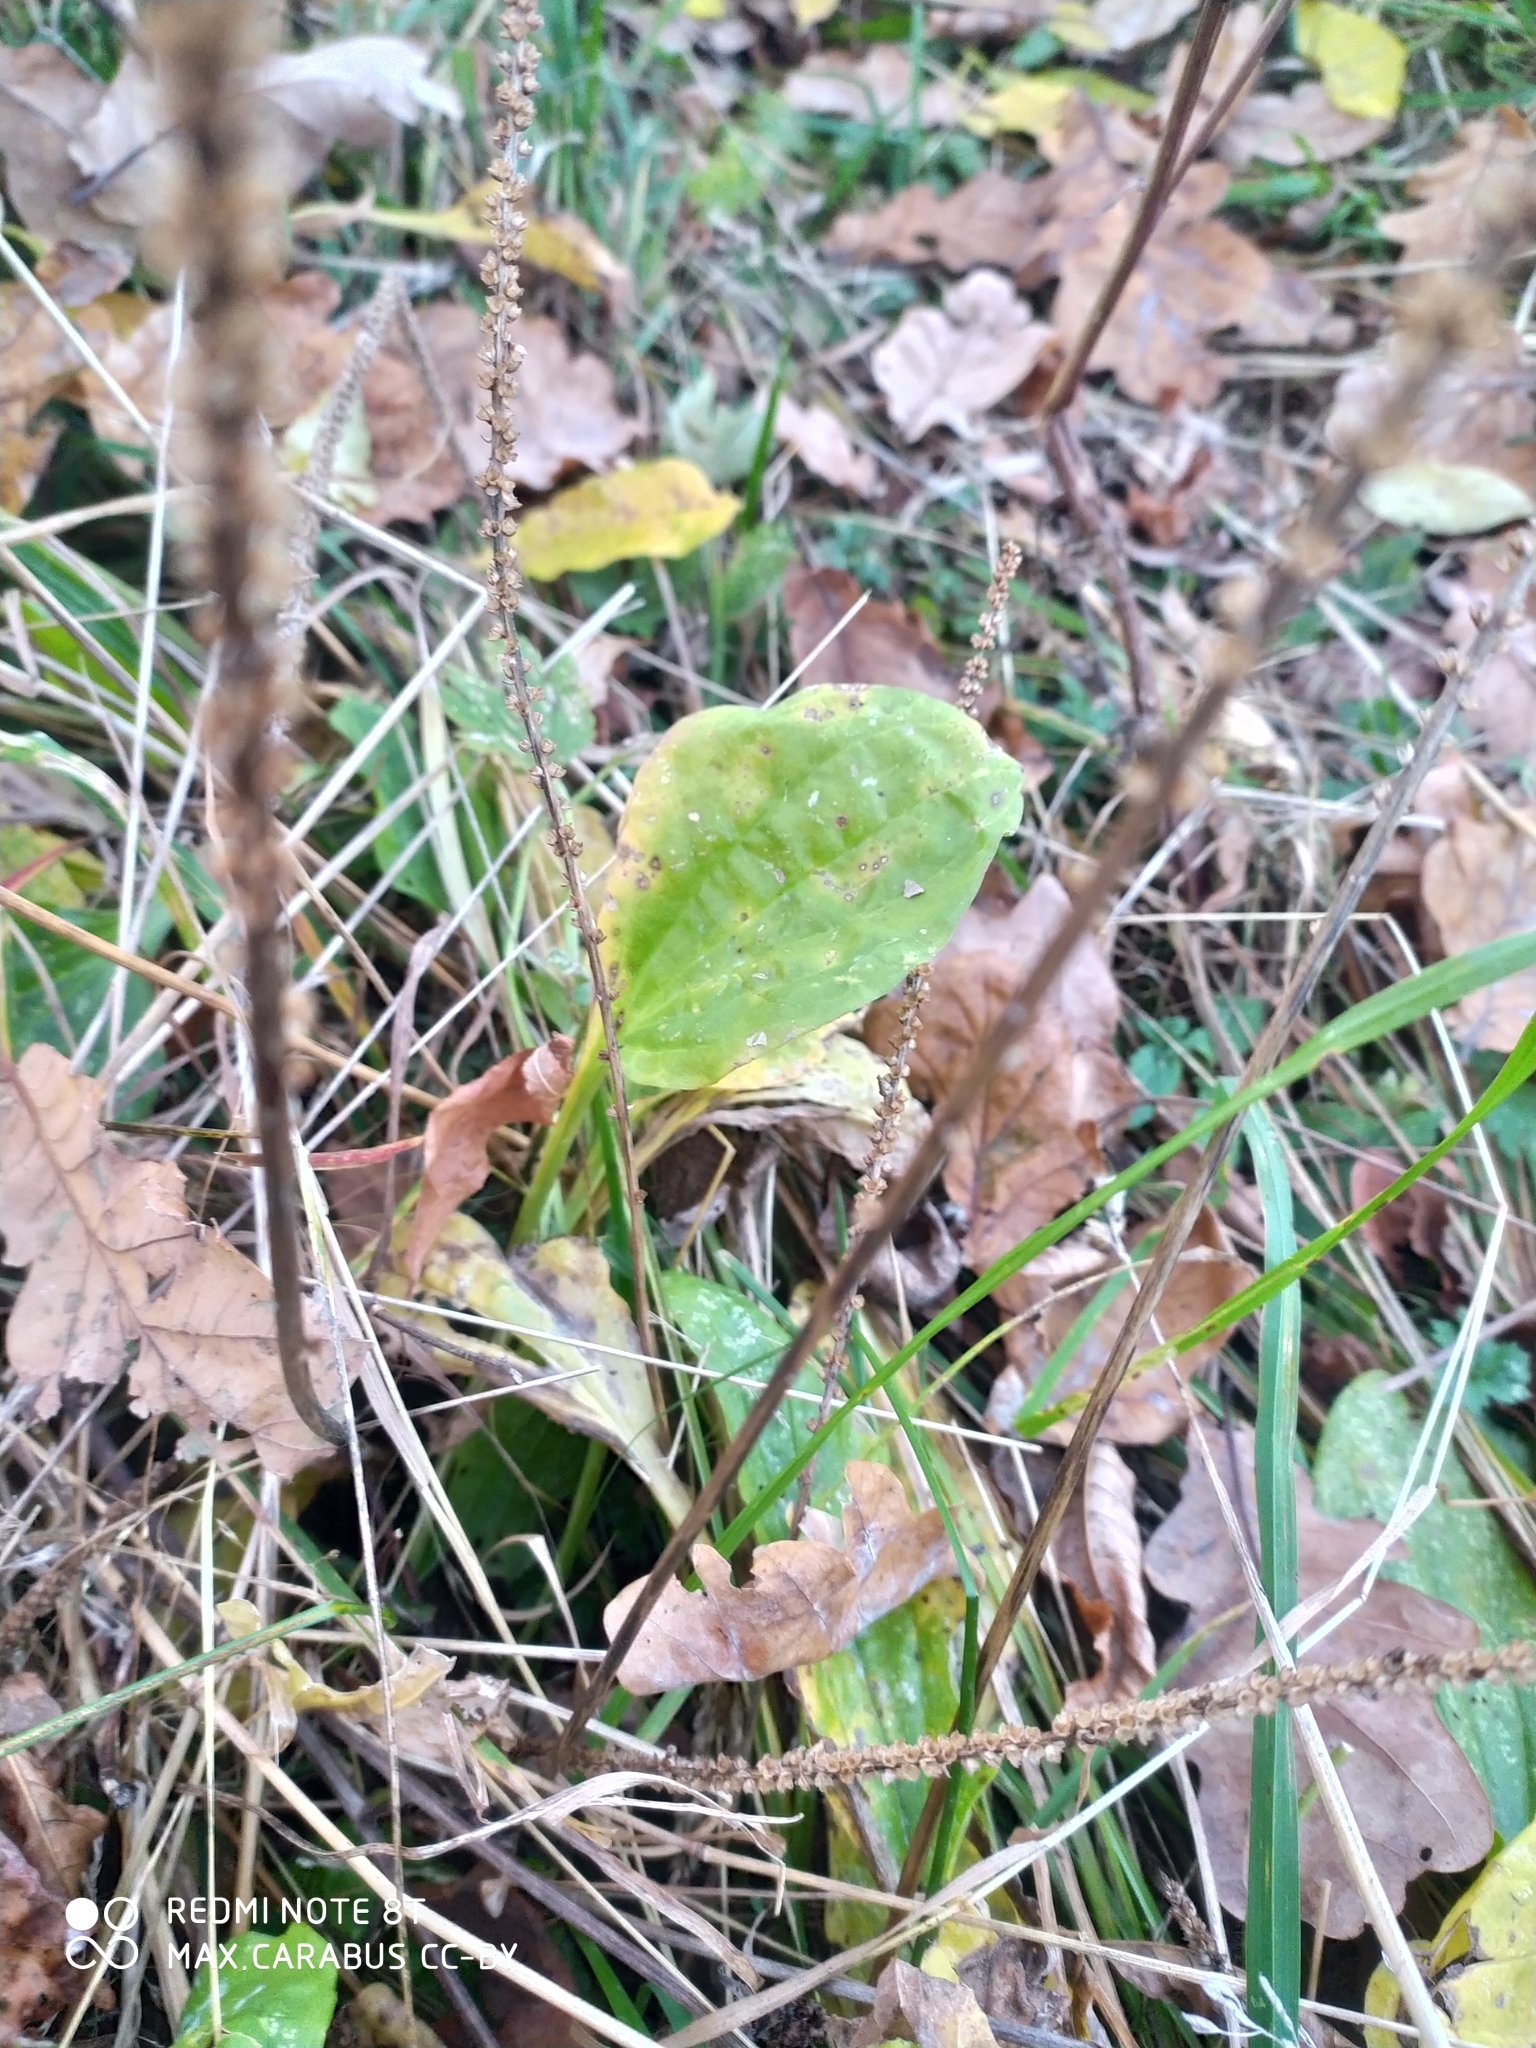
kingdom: Plantae
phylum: Tracheophyta
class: Magnoliopsida
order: Lamiales
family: Plantaginaceae
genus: Plantago
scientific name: Plantago major
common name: Common plantain
